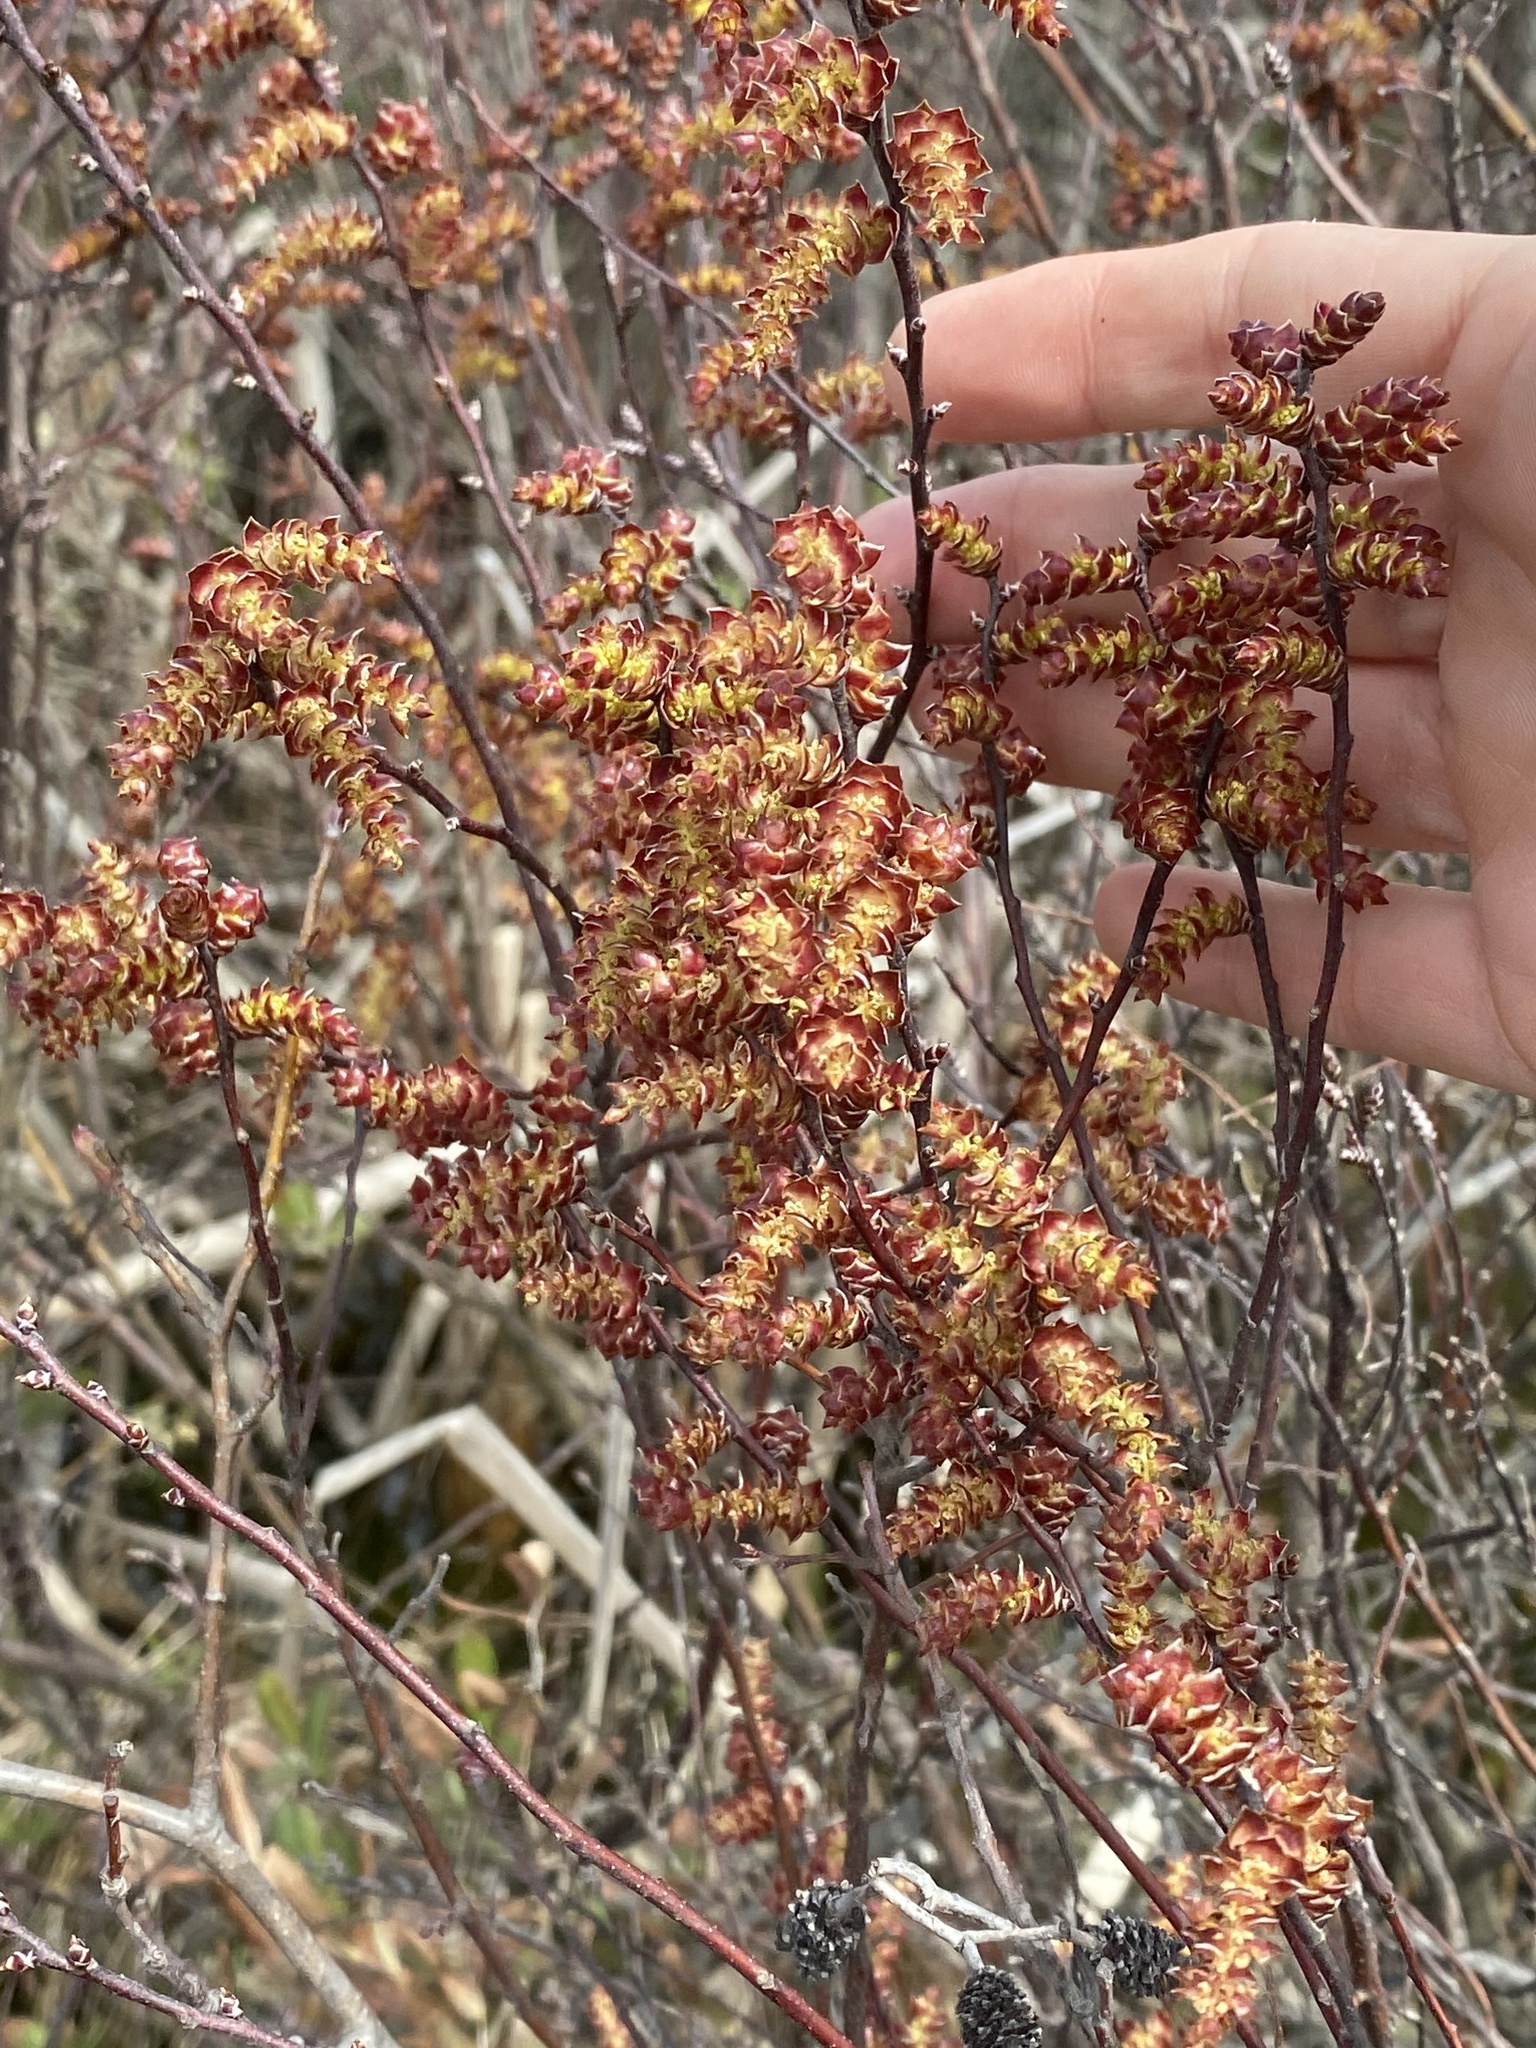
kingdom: Plantae
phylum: Tracheophyta
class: Magnoliopsida
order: Fagales
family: Myricaceae
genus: Myrica
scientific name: Myrica gale
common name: Sweet gale
